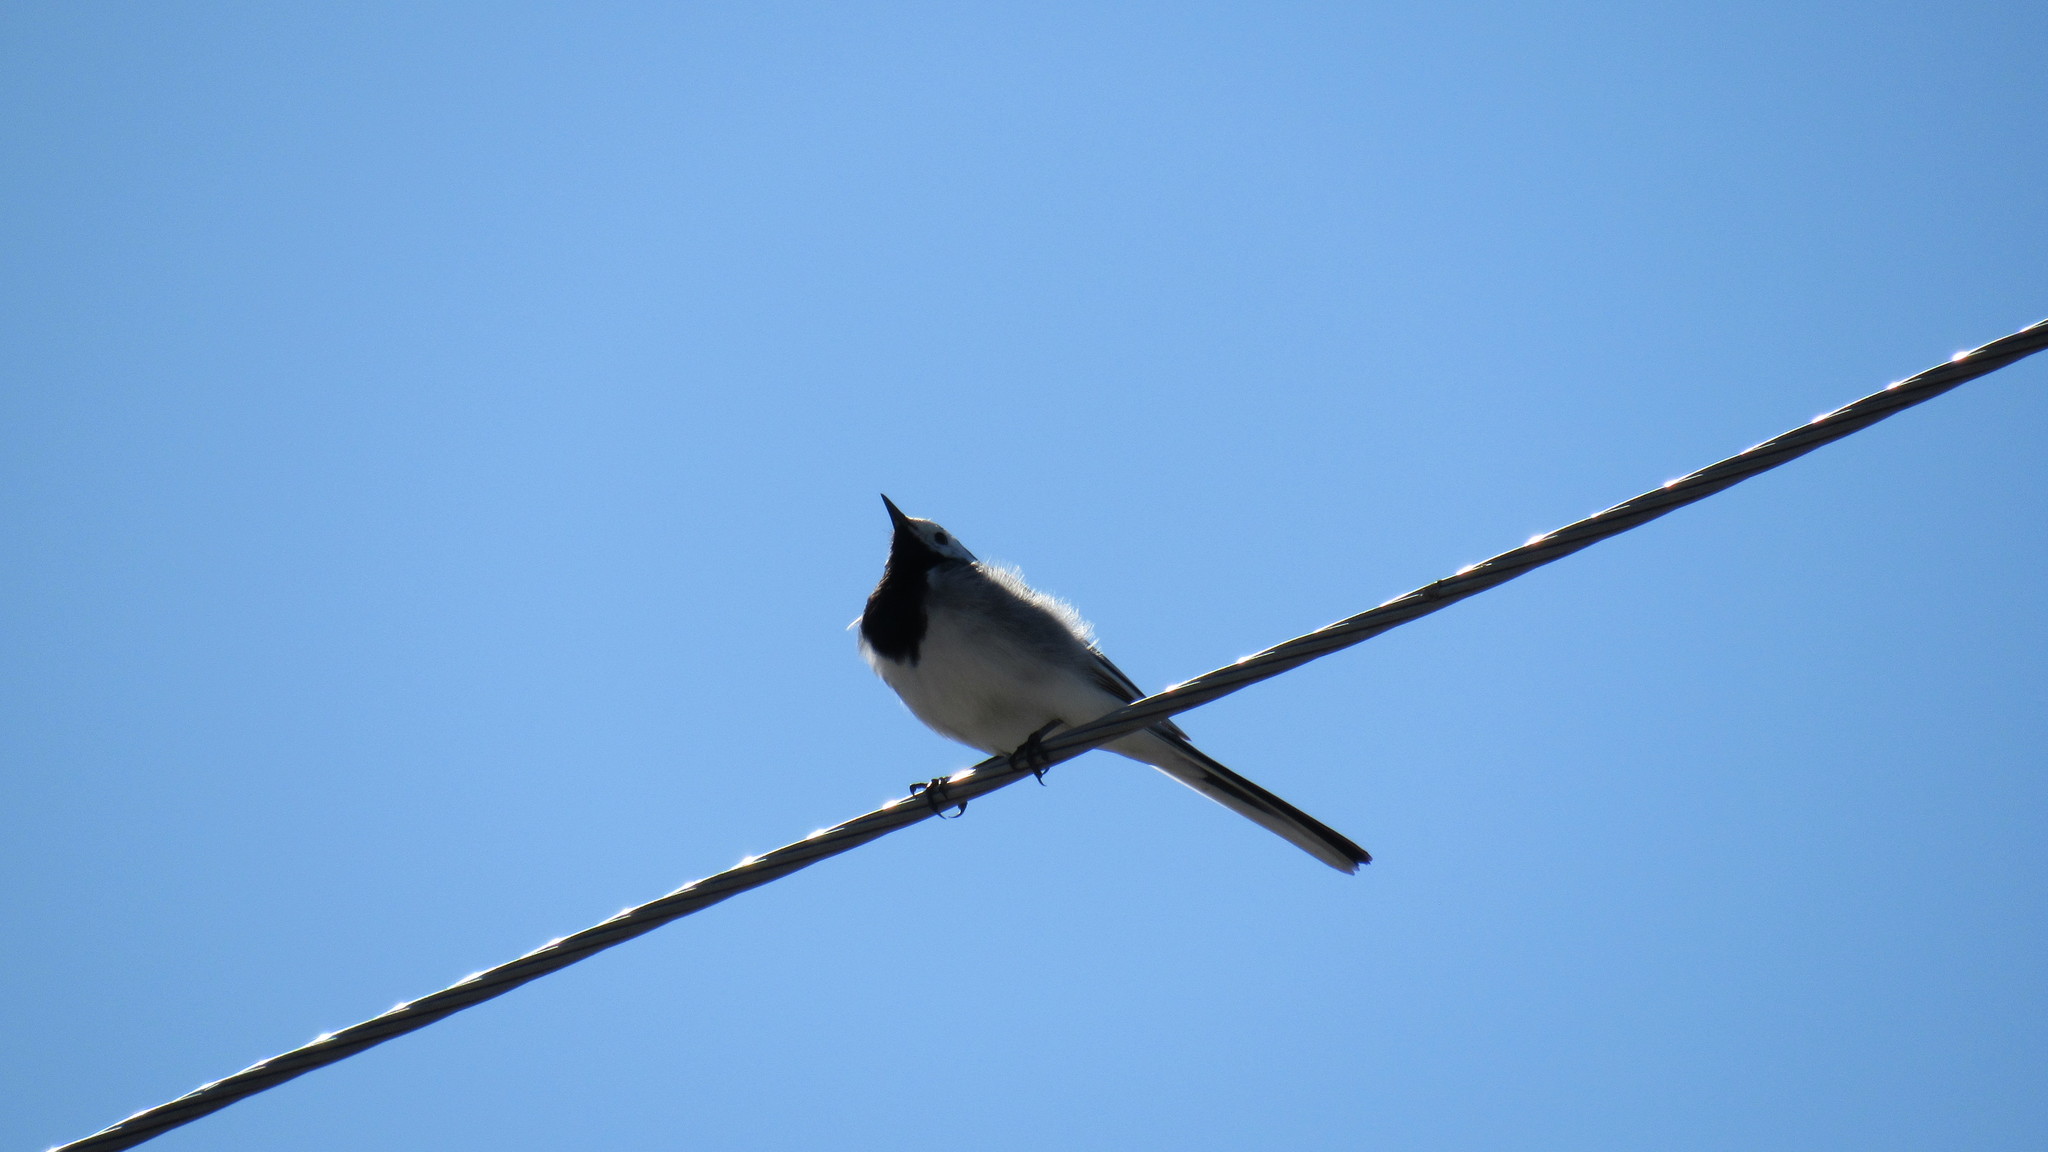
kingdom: Animalia
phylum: Chordata
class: Aves
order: Passeriformes
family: Motacillidae
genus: Motacilla
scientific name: Motacilla alba
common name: White wagtail
